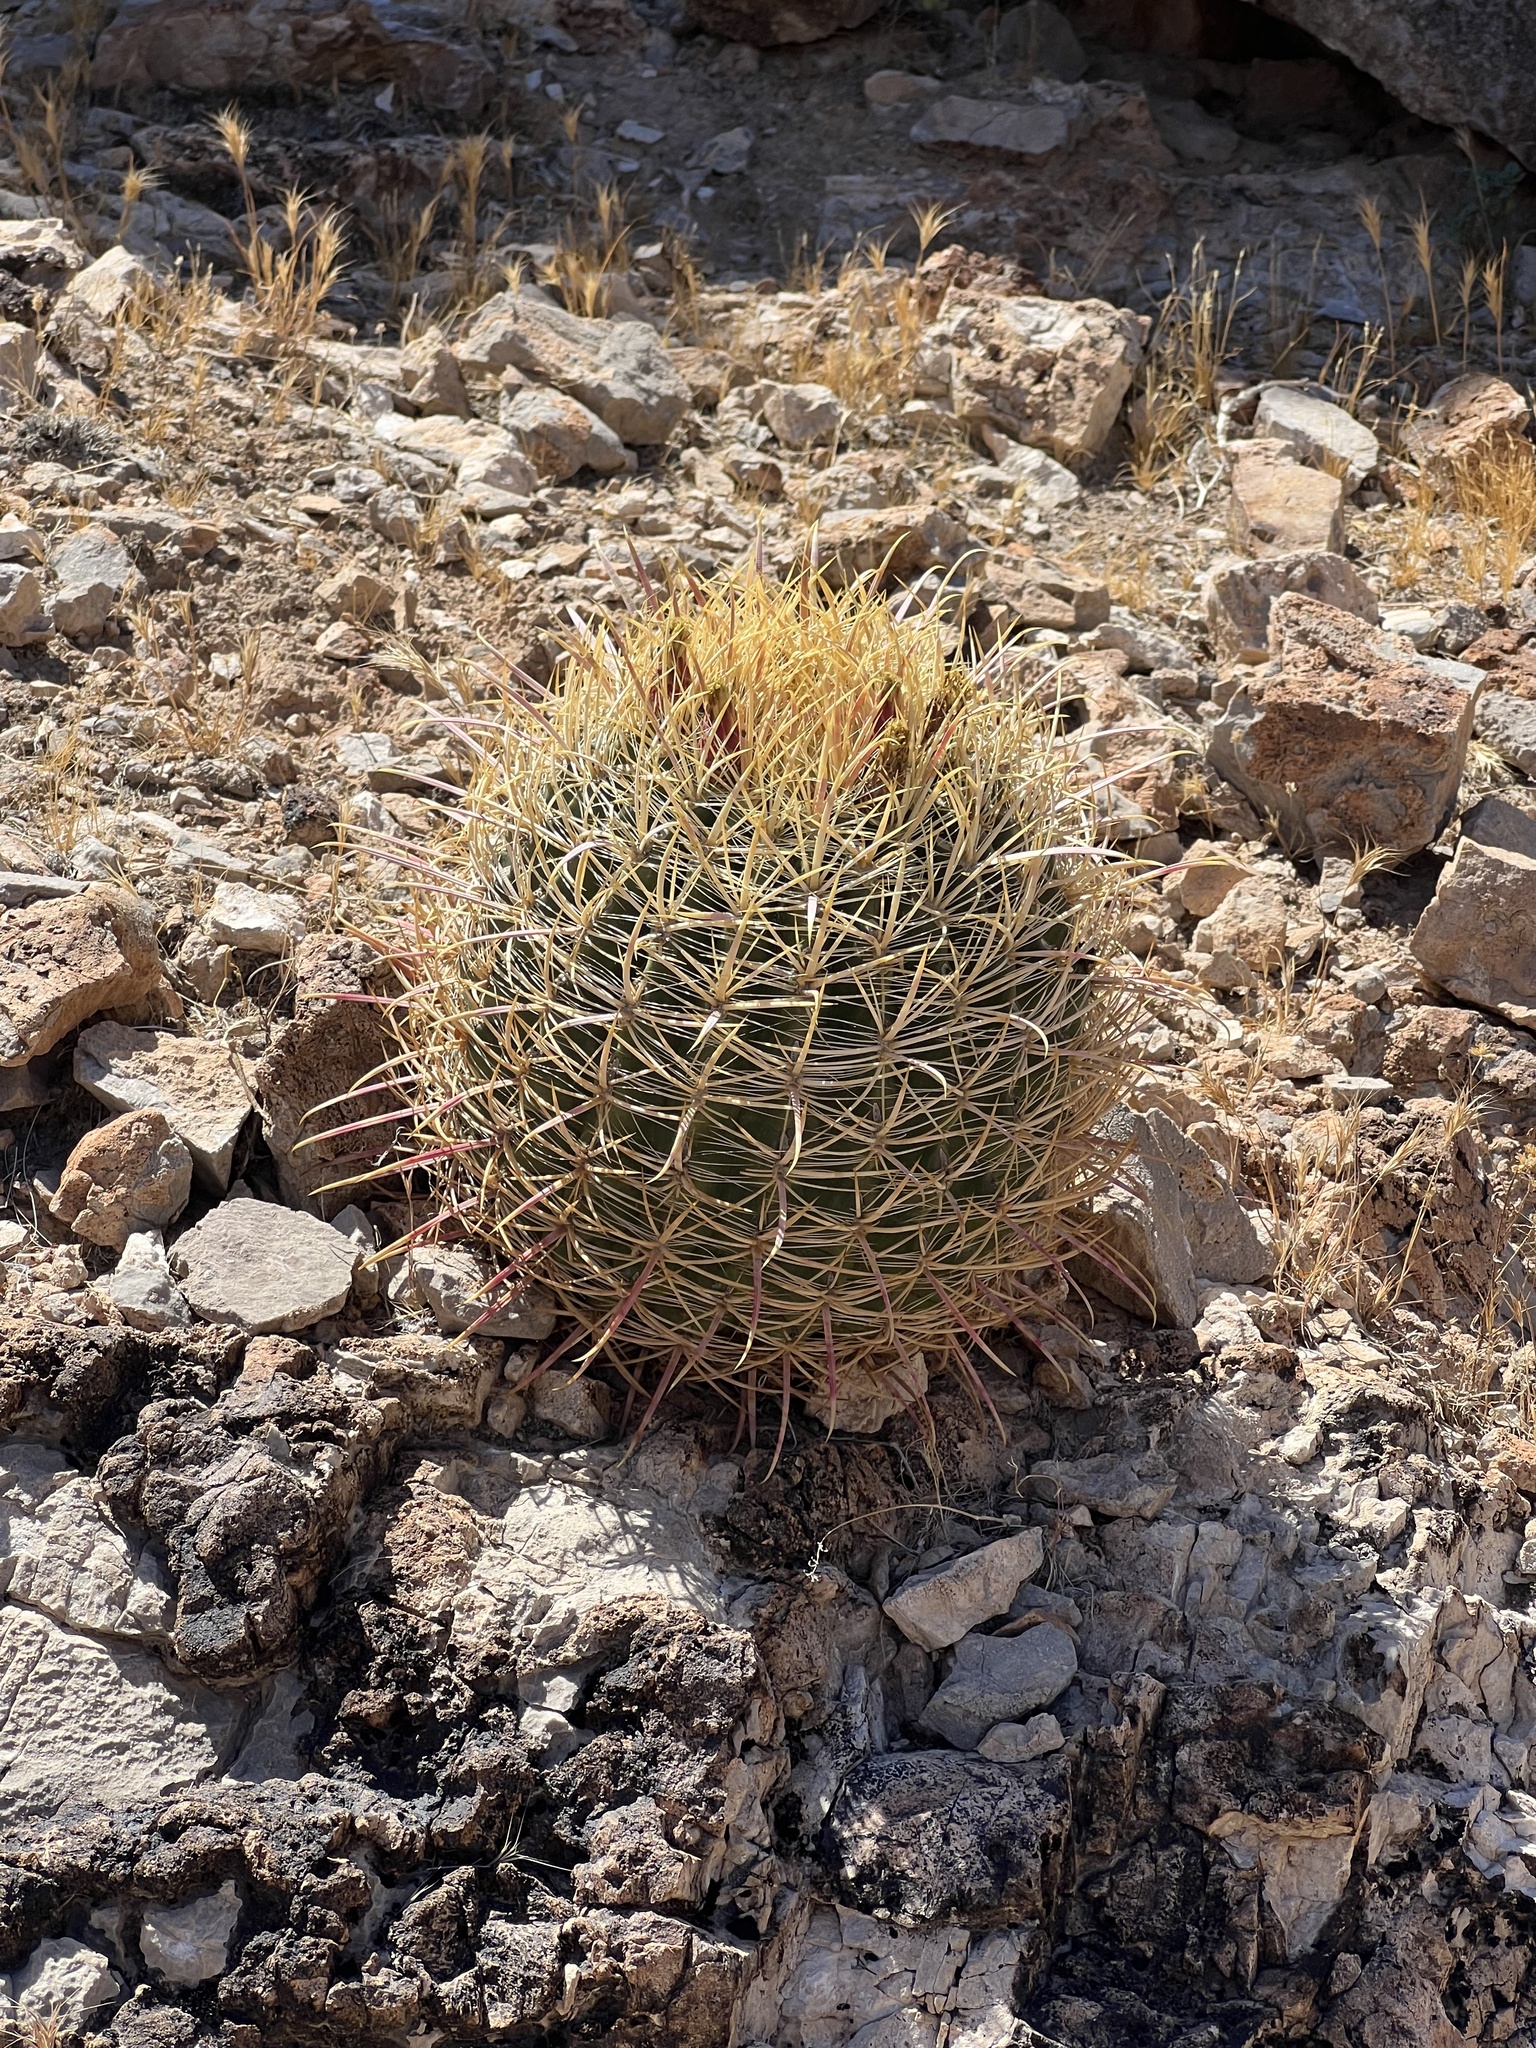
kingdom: Plantae
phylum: Tracheophyta
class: Magnoliopsida
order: Caryophyllales
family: Cactaceae
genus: Ferocactus
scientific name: Ferocactus cylindraceus
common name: California barrel cactus
